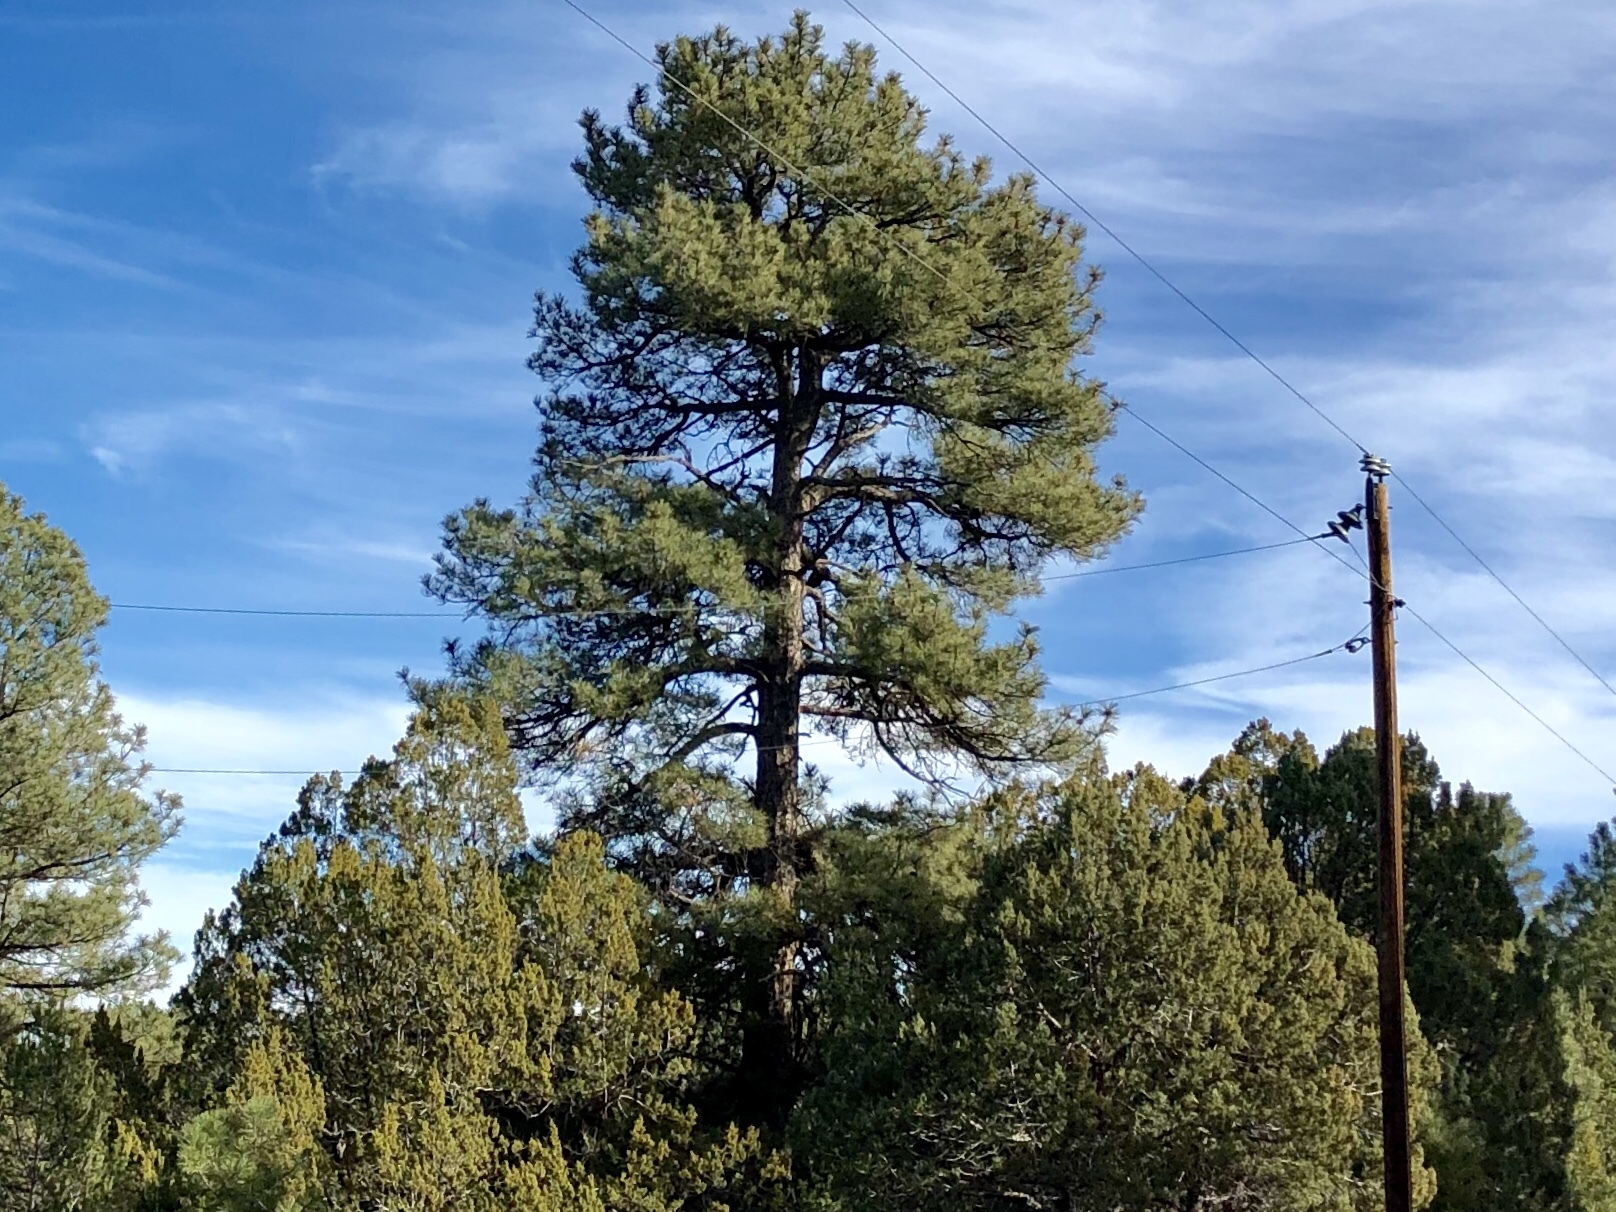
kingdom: Plantae
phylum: Tracheophyta
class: Pinopsida
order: Pinales
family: Pinaceae
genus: Pinus
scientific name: Pinus ponderosa
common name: Western yellow-pine
